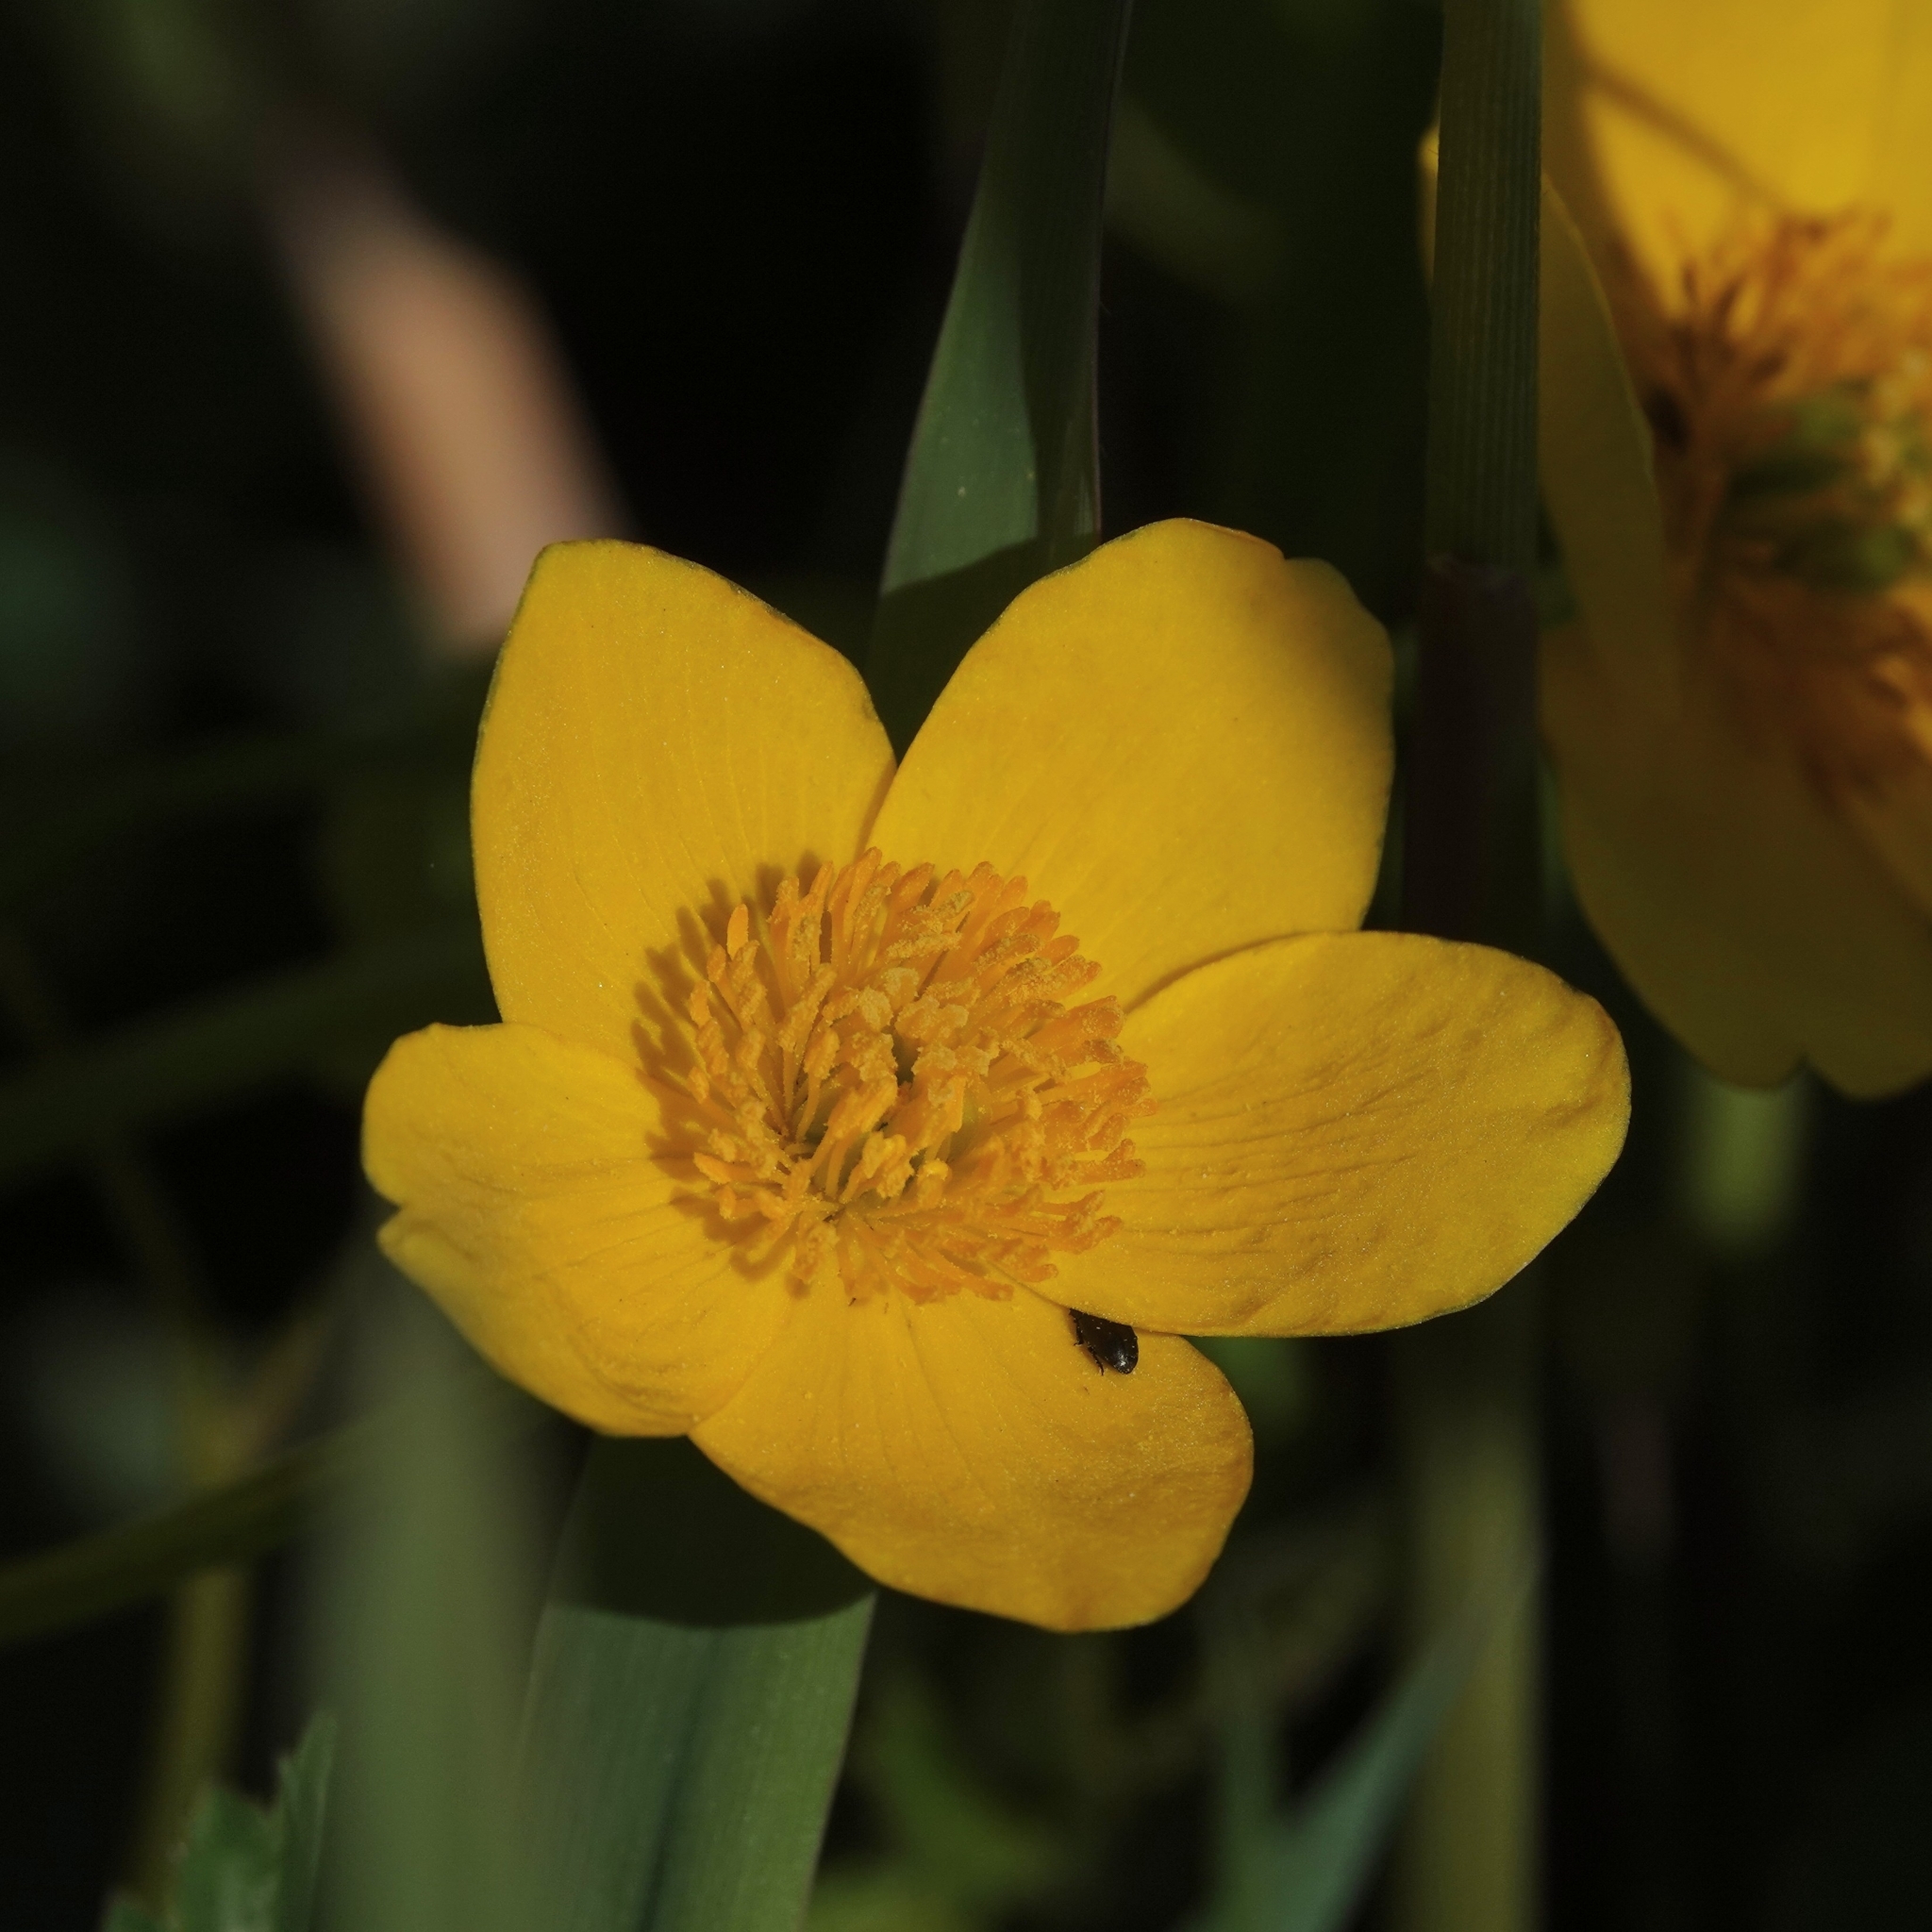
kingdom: Plantae
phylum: Tracheophyta
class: Magnoliopsida
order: Ranunculales
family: Ranunculaceae
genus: Caltha
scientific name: Caltha palustris
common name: Marsh marigold
